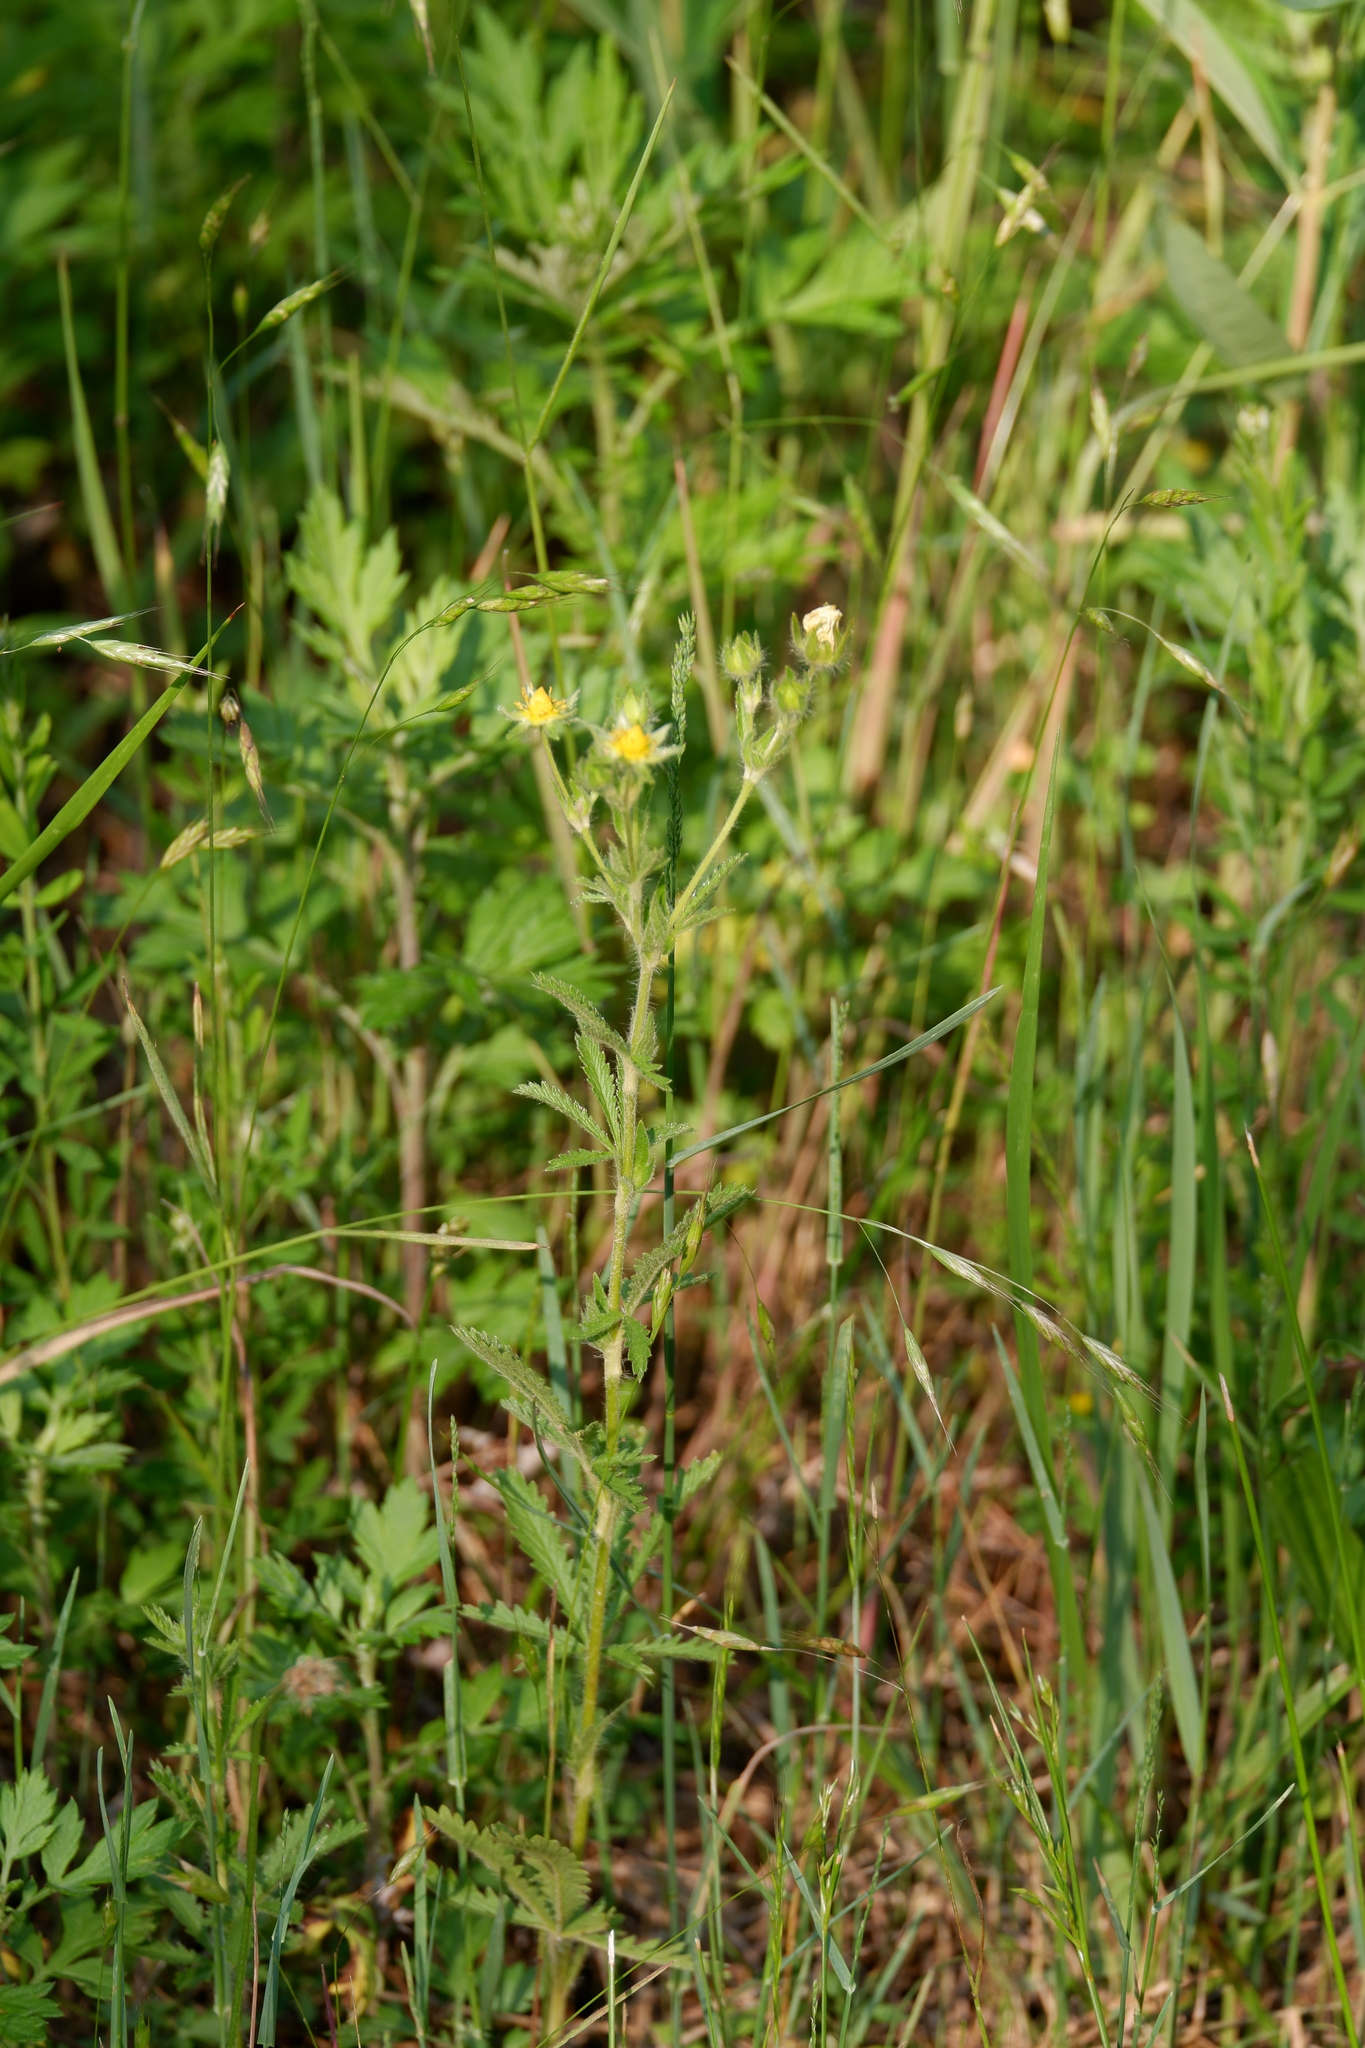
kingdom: Plantae
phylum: Tracheophyta
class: Magnoliopsida
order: Rosales
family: Rosaceae
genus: Potentilla
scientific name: Potentilla recta
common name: Sulphur cinquefoil
